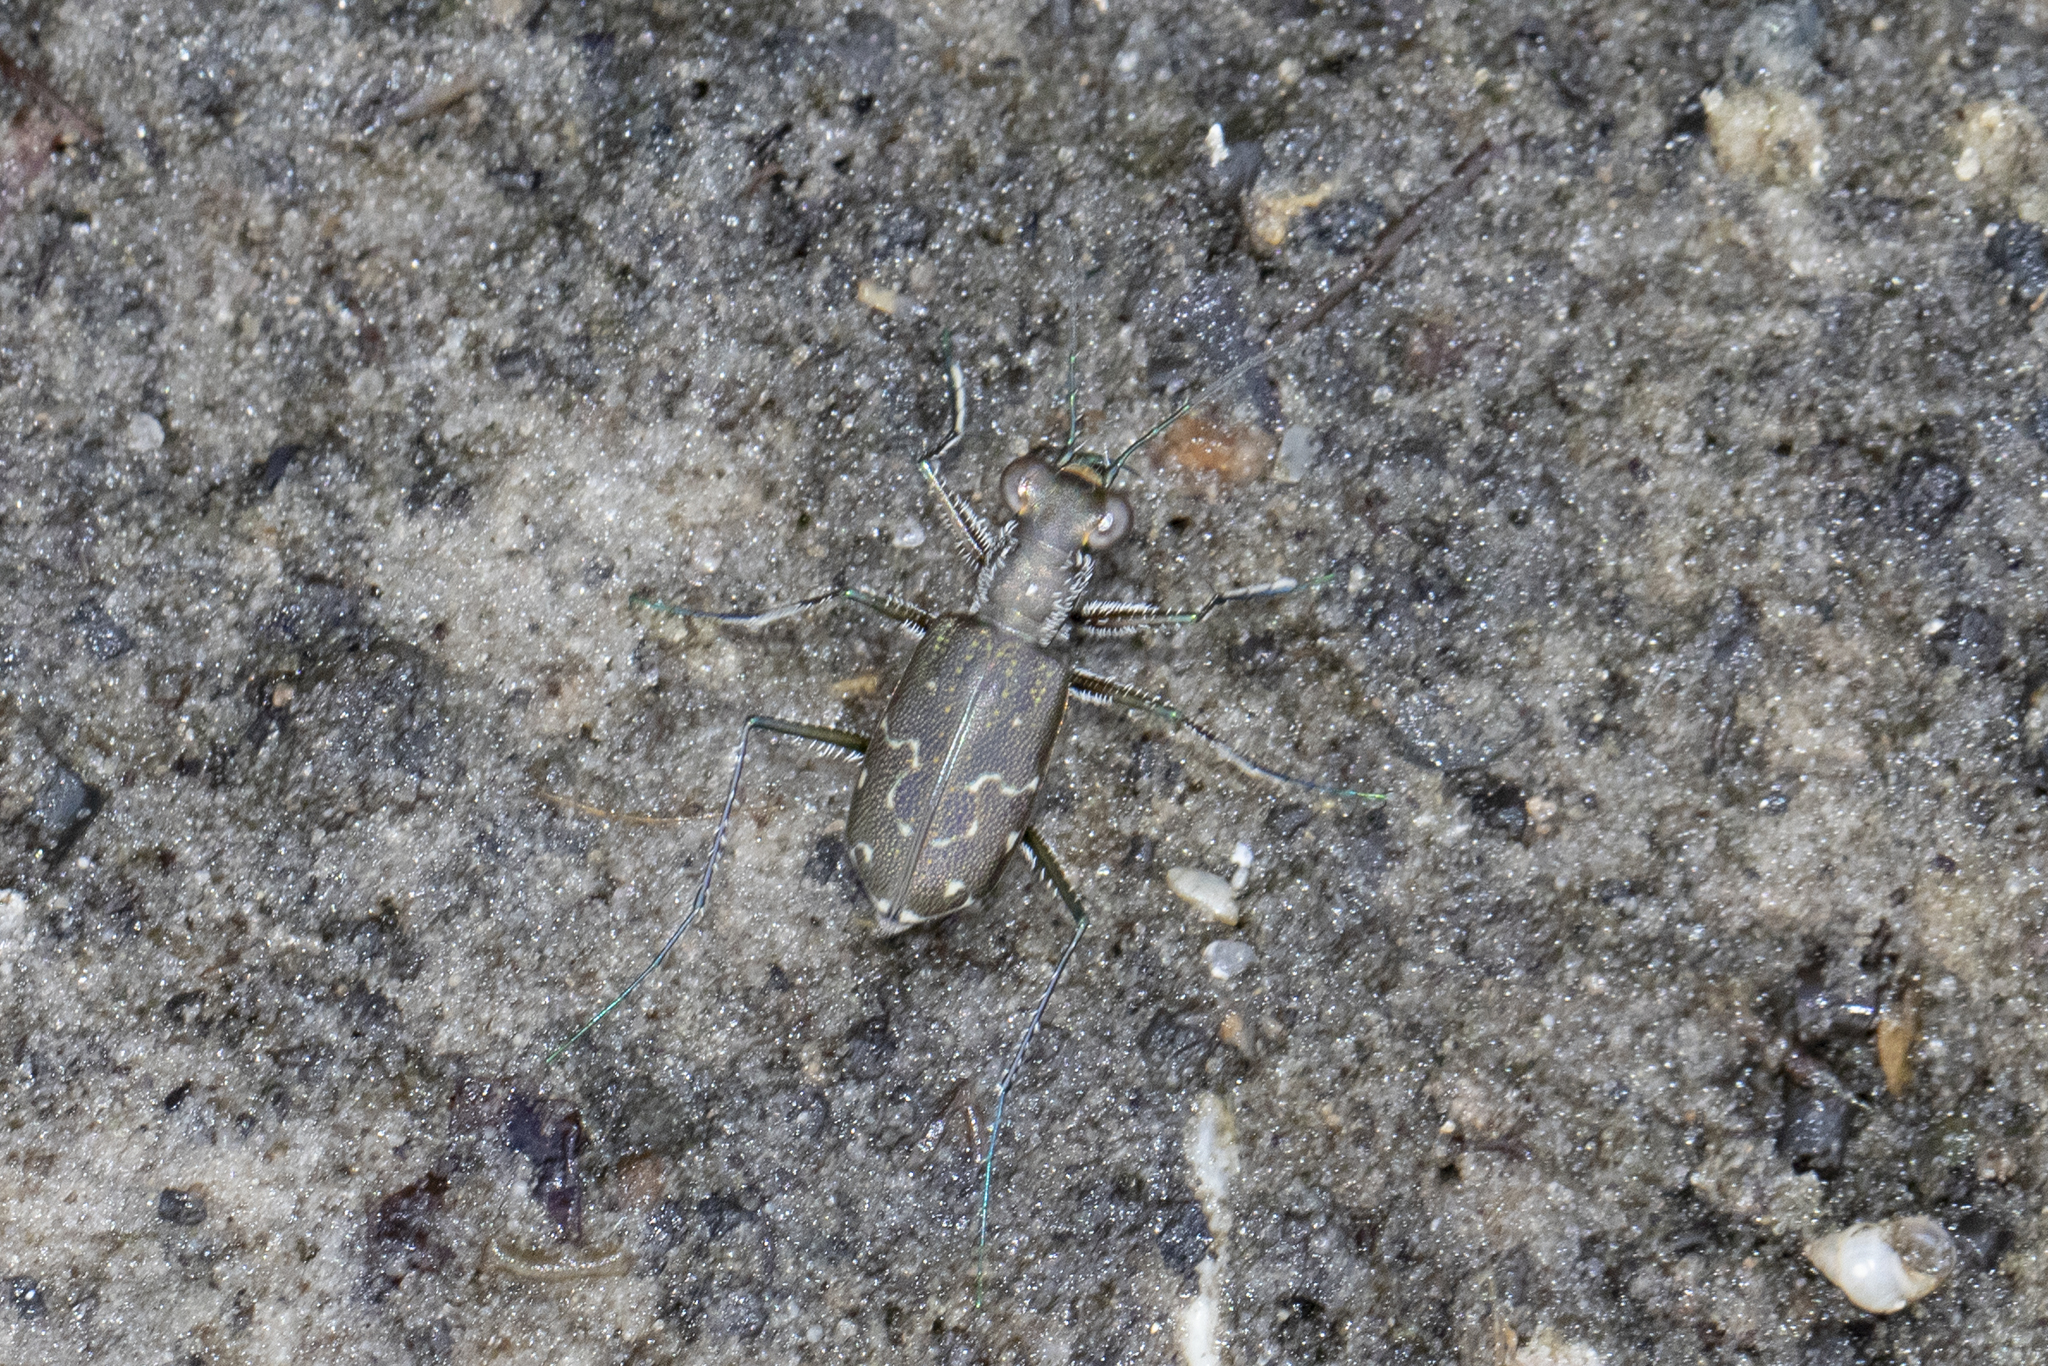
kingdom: Animalia
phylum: Arthropoda
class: Insecta
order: Coleoptera
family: Carabidae
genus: Cicindela
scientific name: Cicindela trifasciata
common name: Mudflat tiger beetle
